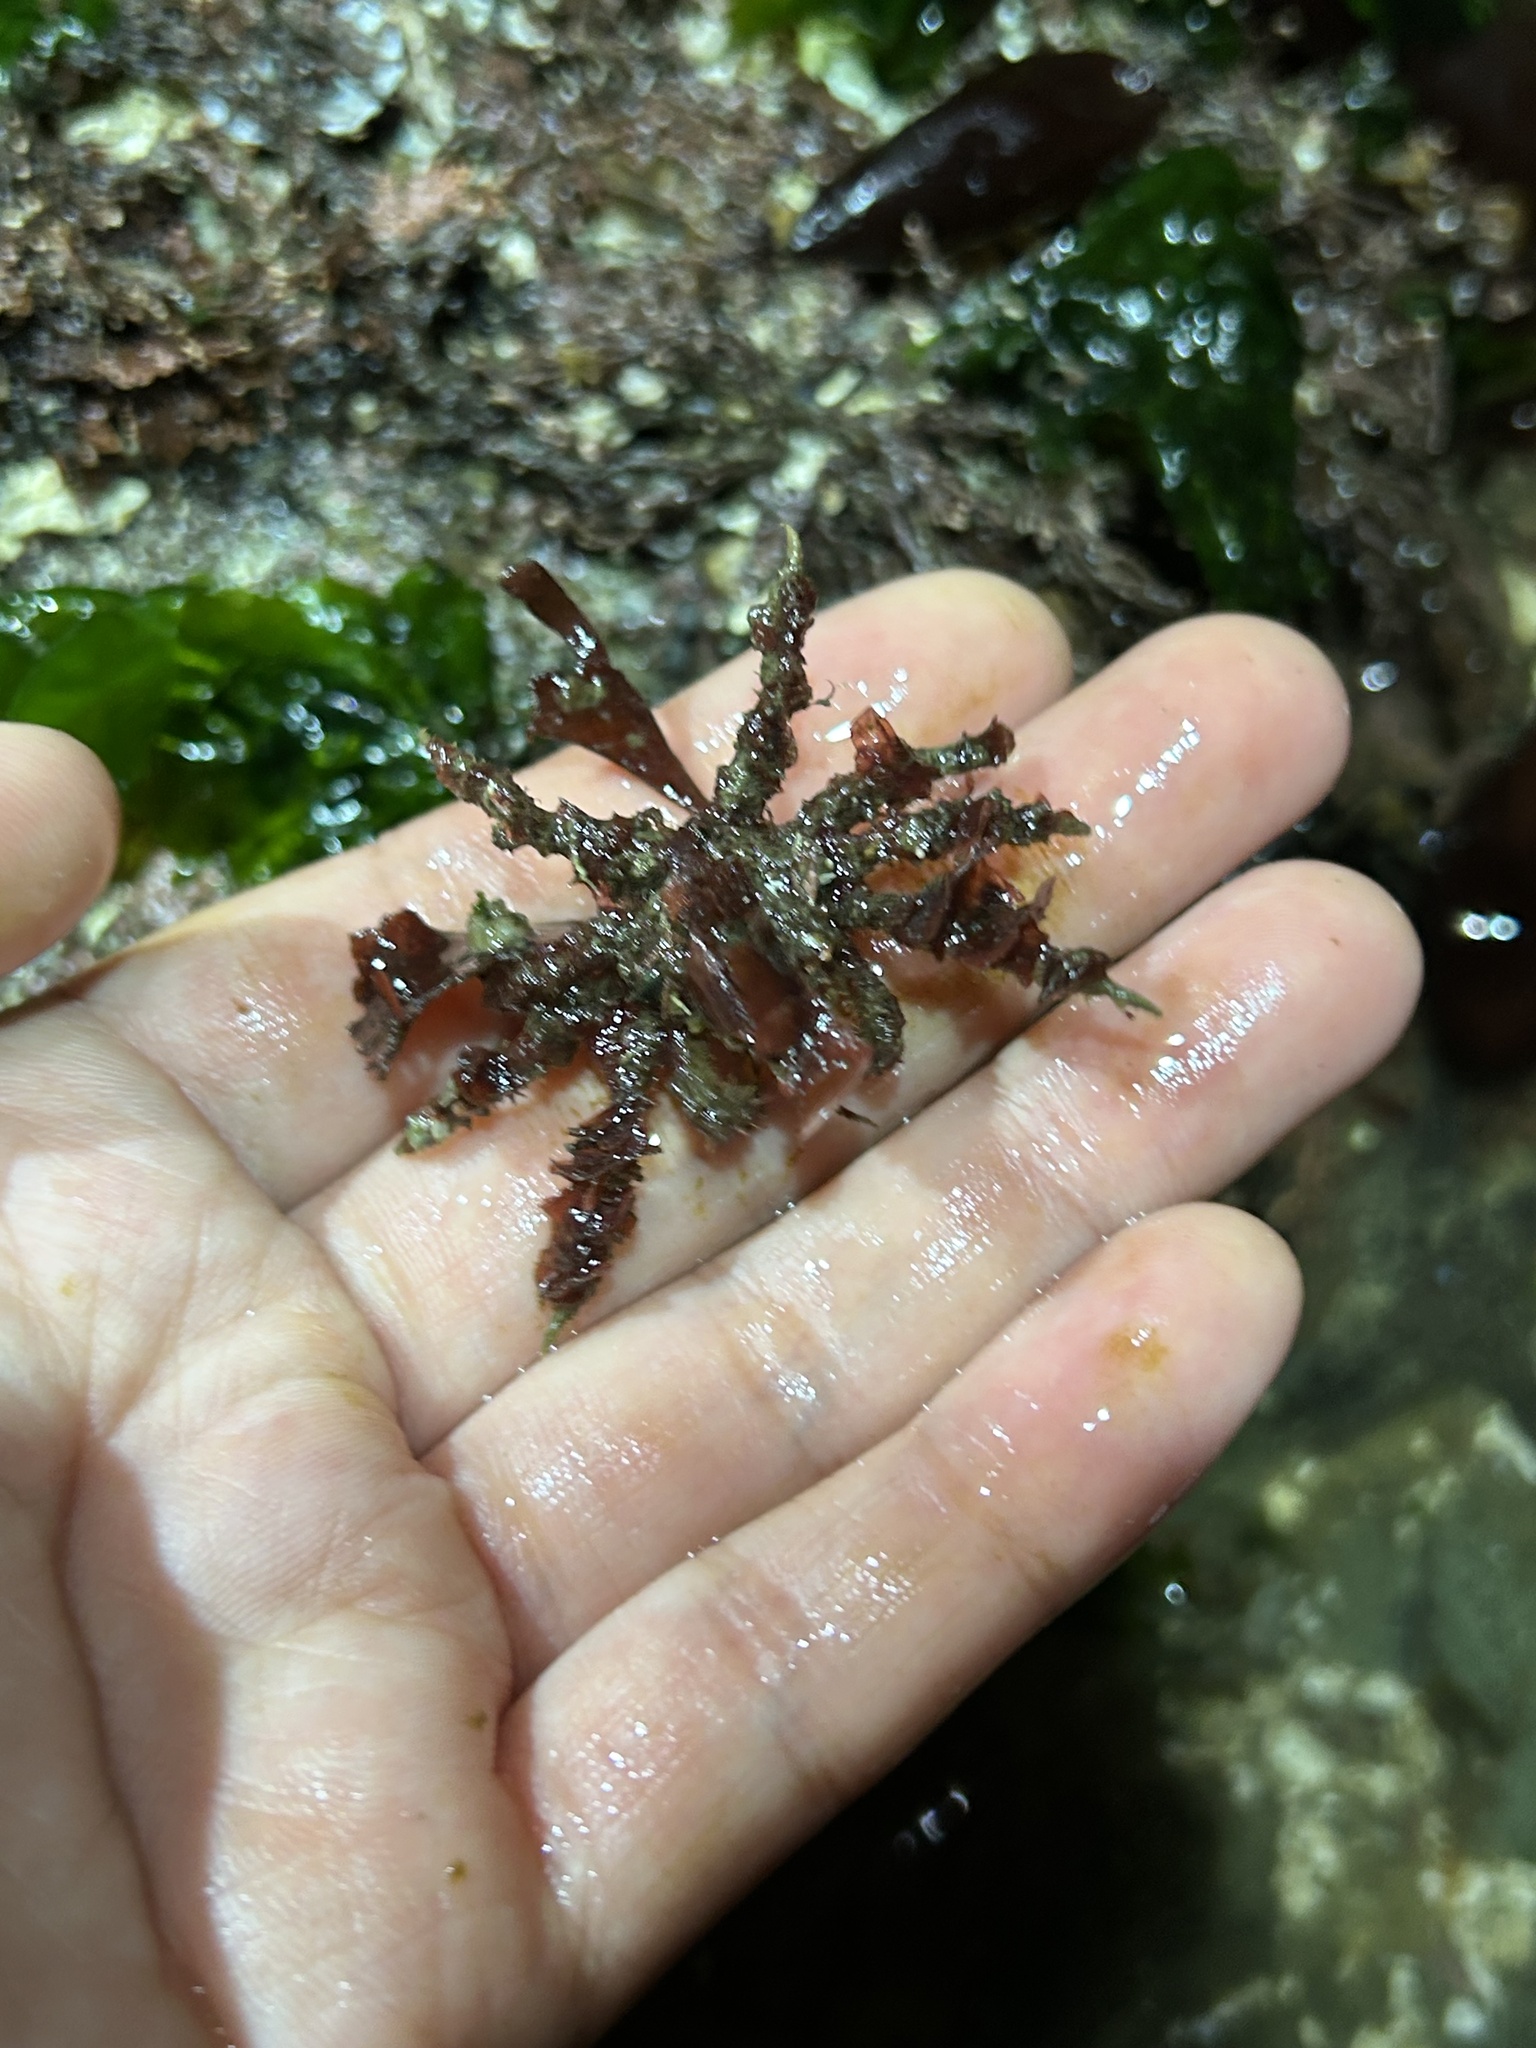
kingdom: Animalia
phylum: Arthropoda
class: Malacostraca
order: Decapoda
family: Oregoniidae
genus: Oregonia
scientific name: Oregonia gracilis
